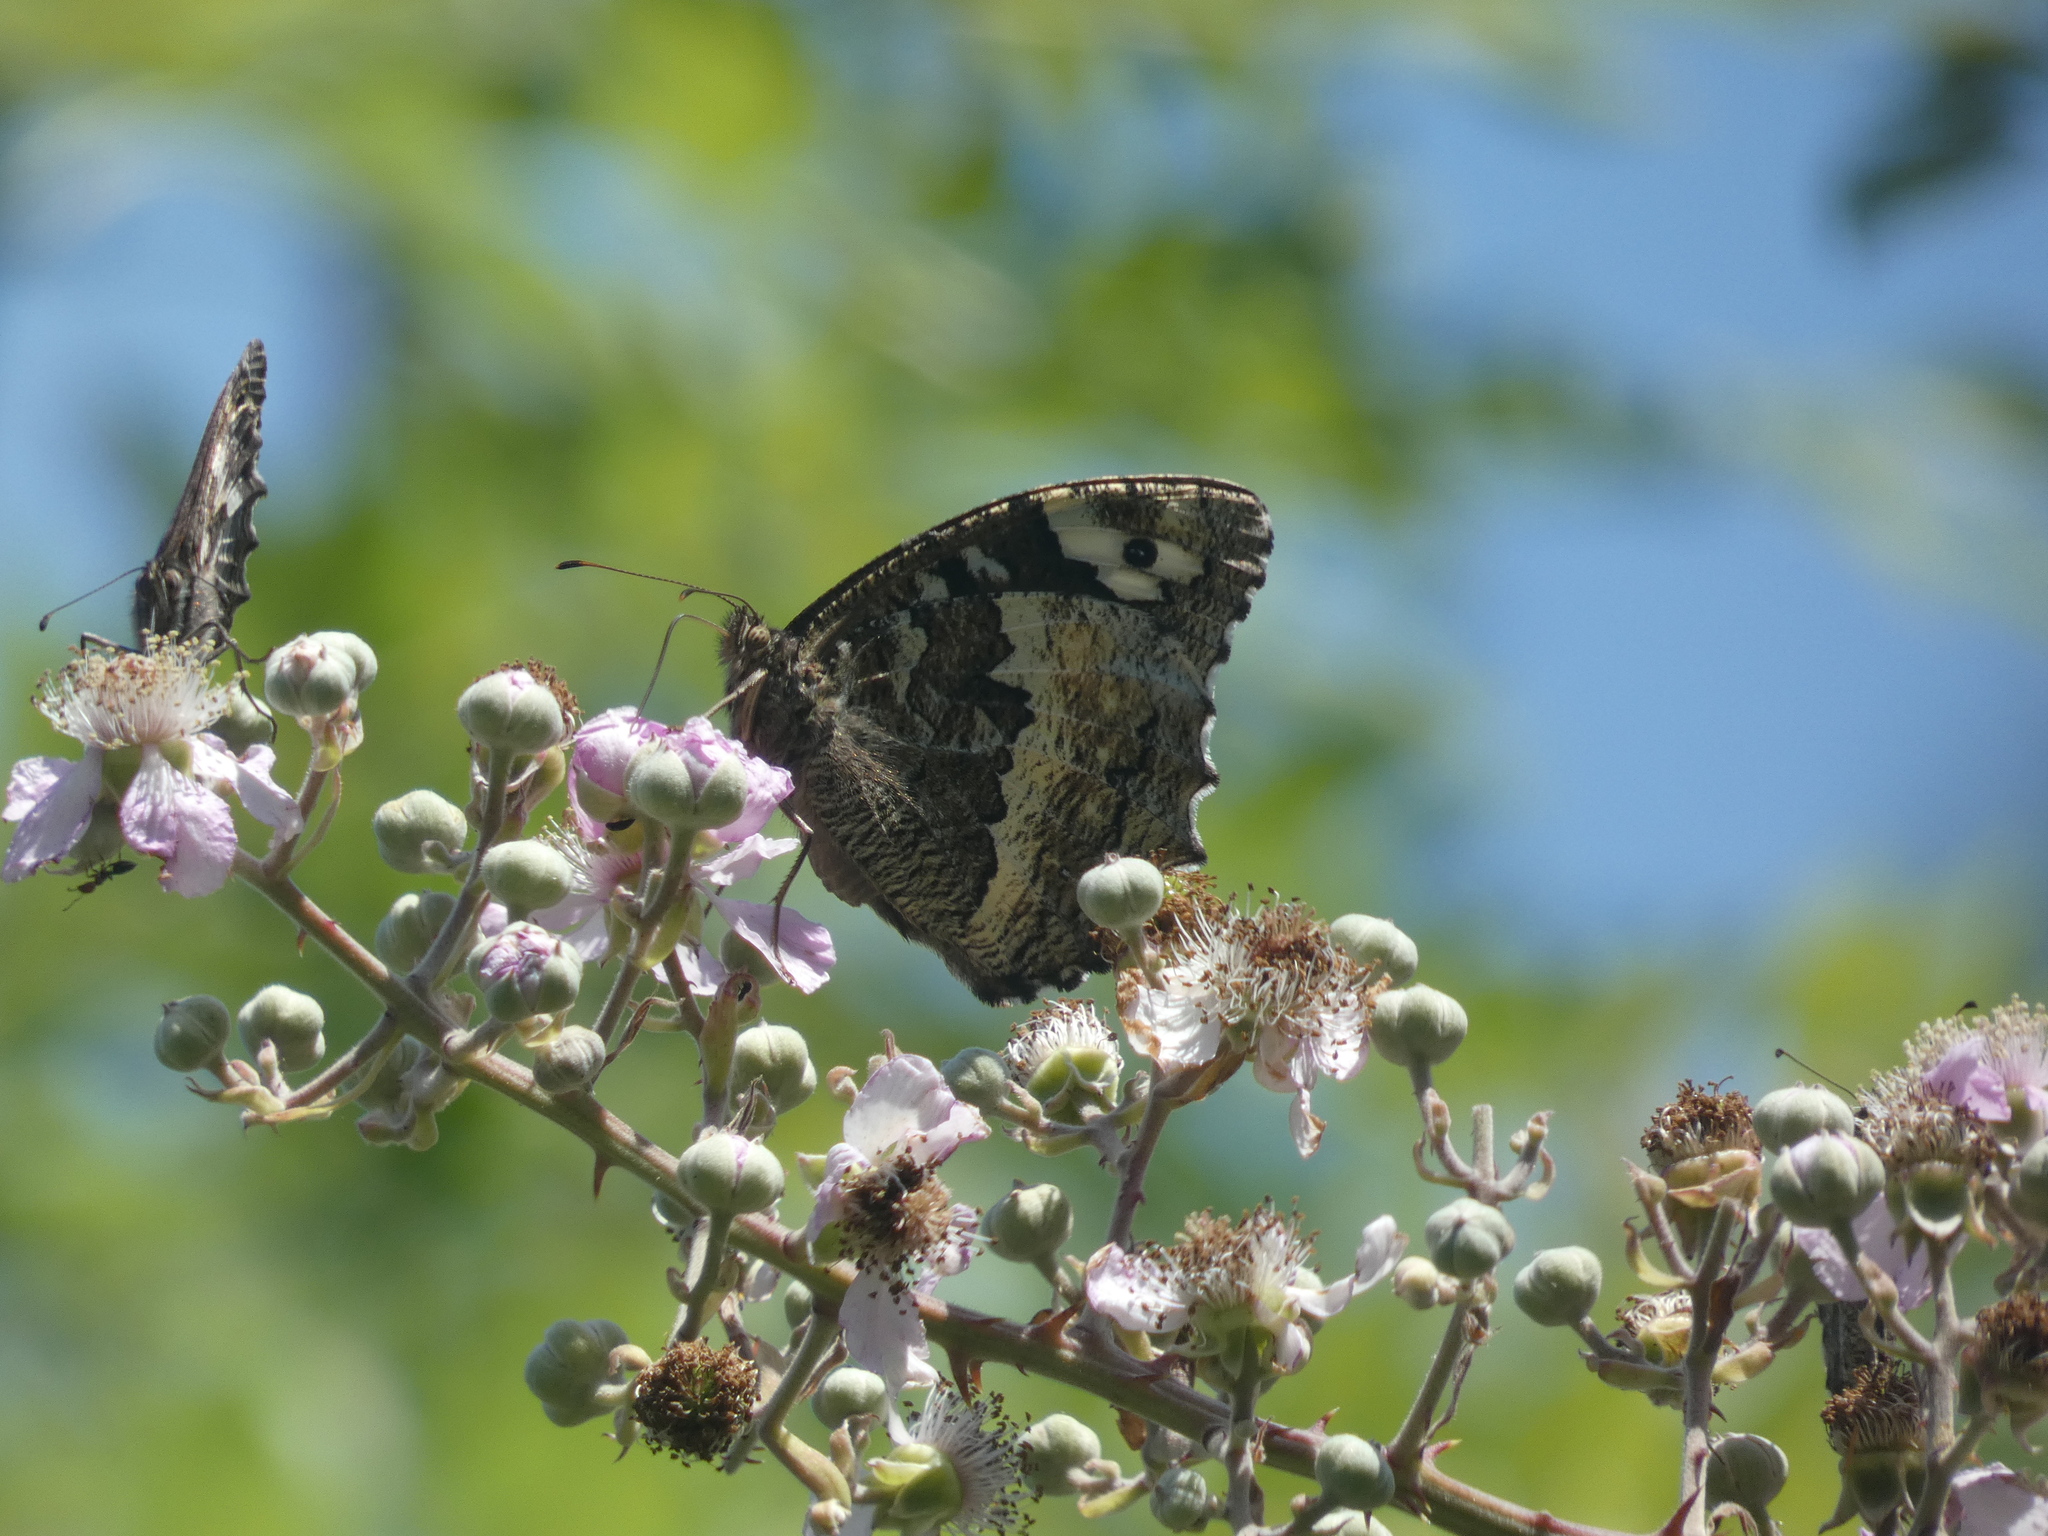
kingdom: Animalia
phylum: Arthropoda
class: Insecta
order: Lepidoptera
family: Lycaenidae
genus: Loweia
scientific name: Loweia tityrus
